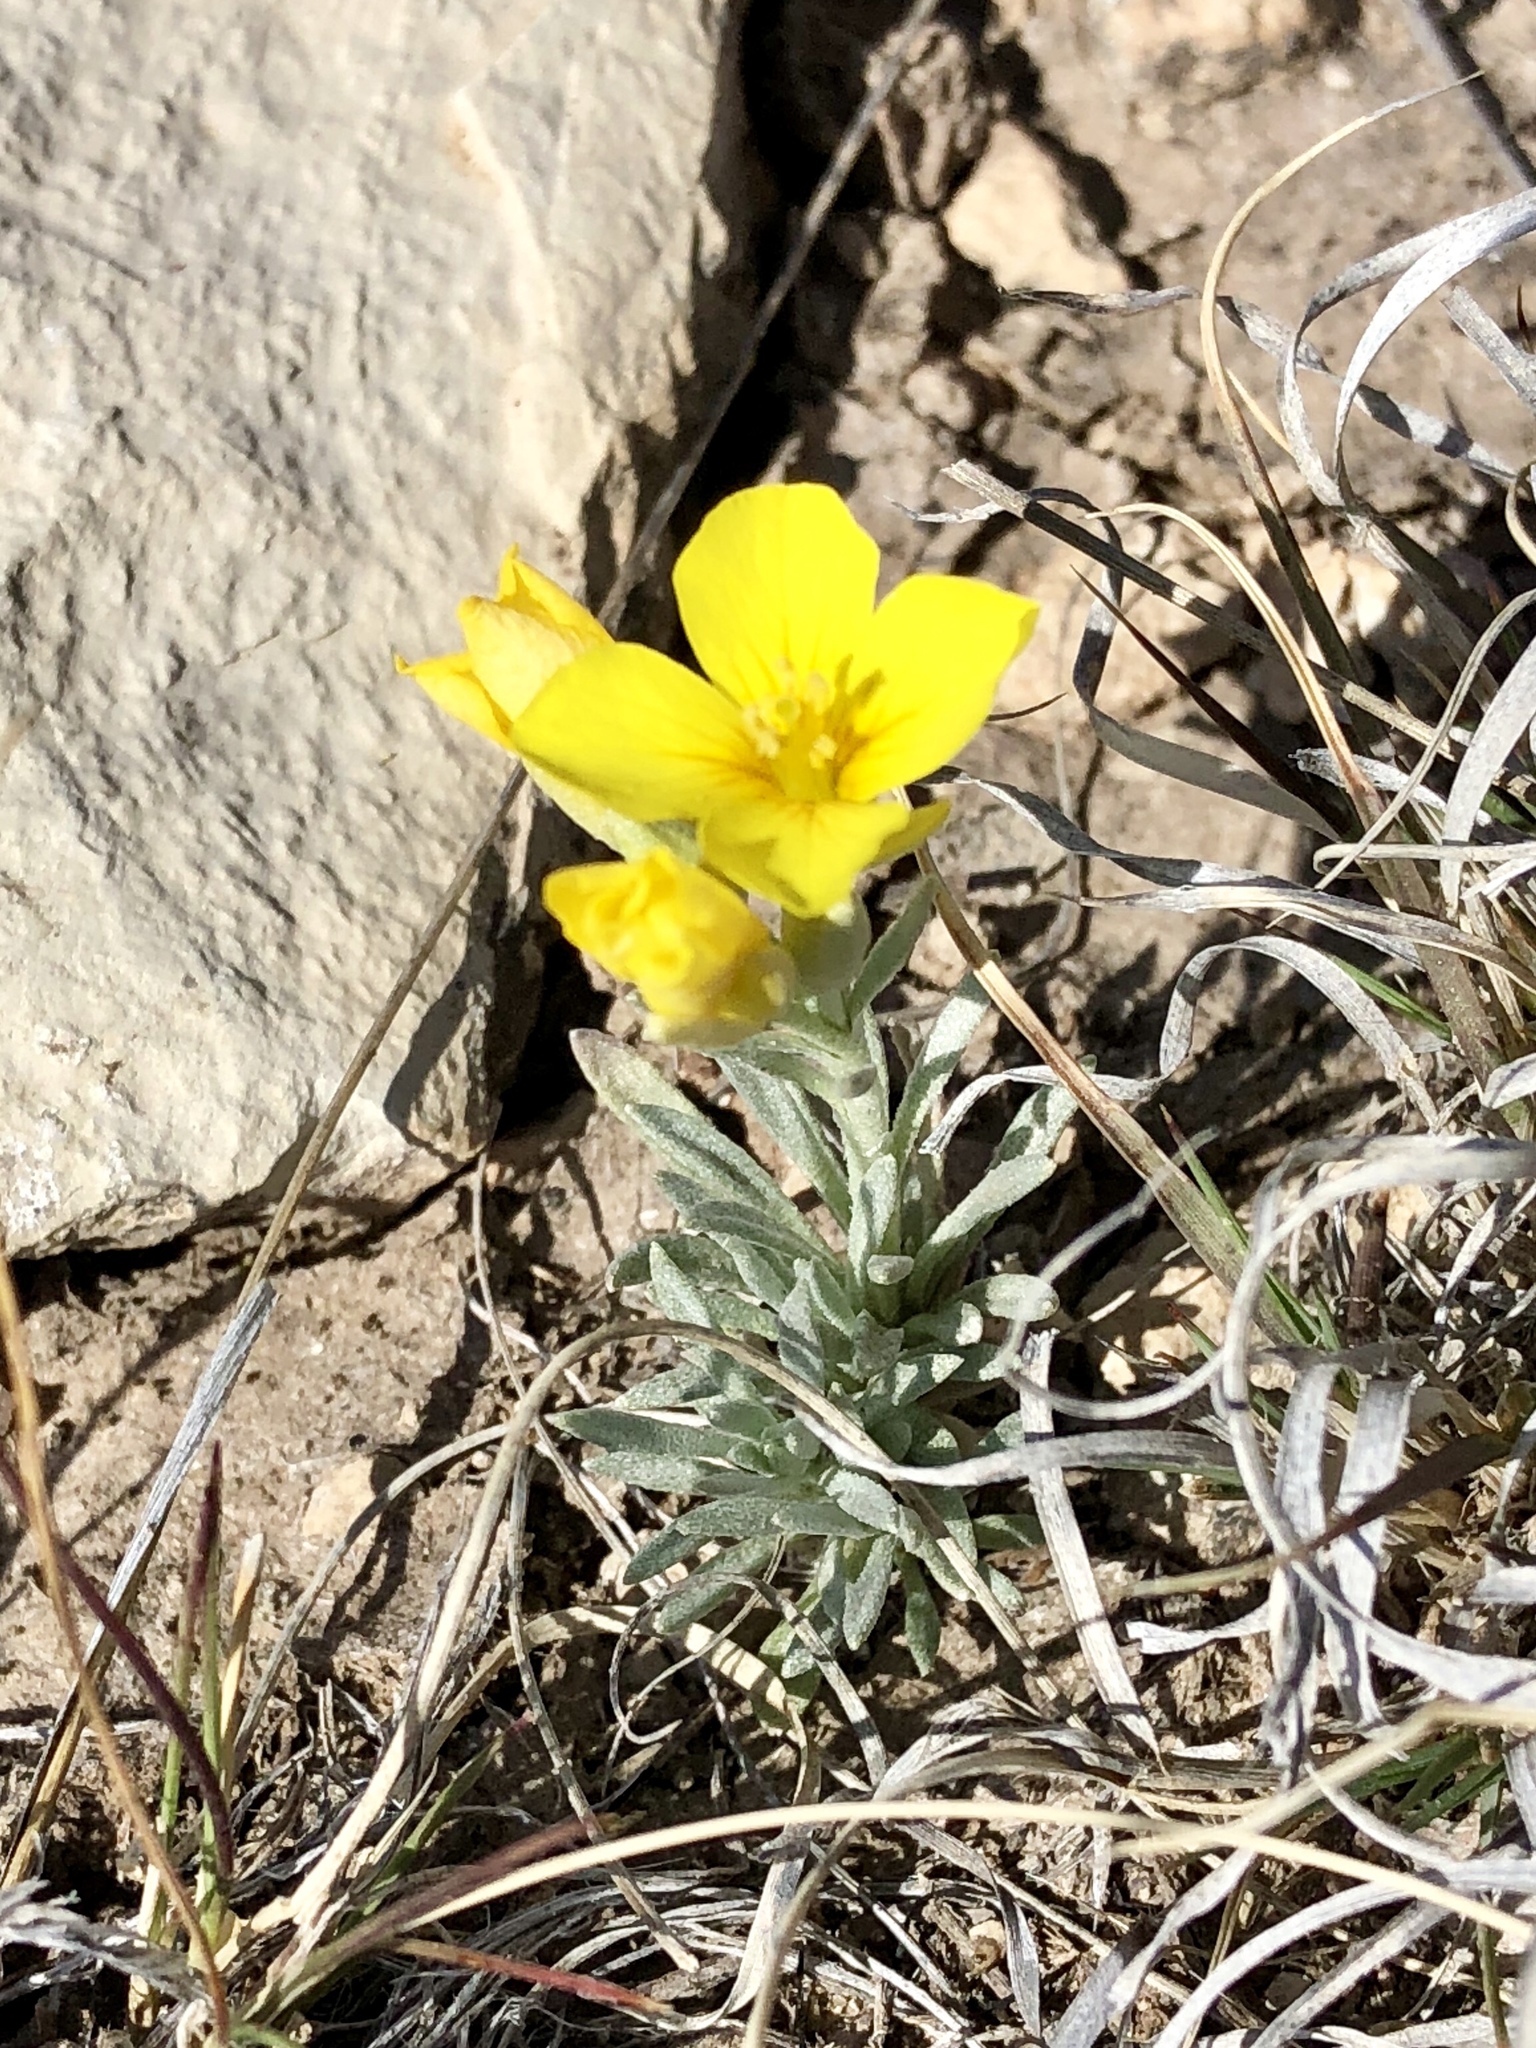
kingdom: Plantae
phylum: Tracheophyta
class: Magnoliopsida
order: Brassicales
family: Brassicaceae
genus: Physaria
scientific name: Physaria fendleri
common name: Fendler's bladderpod
